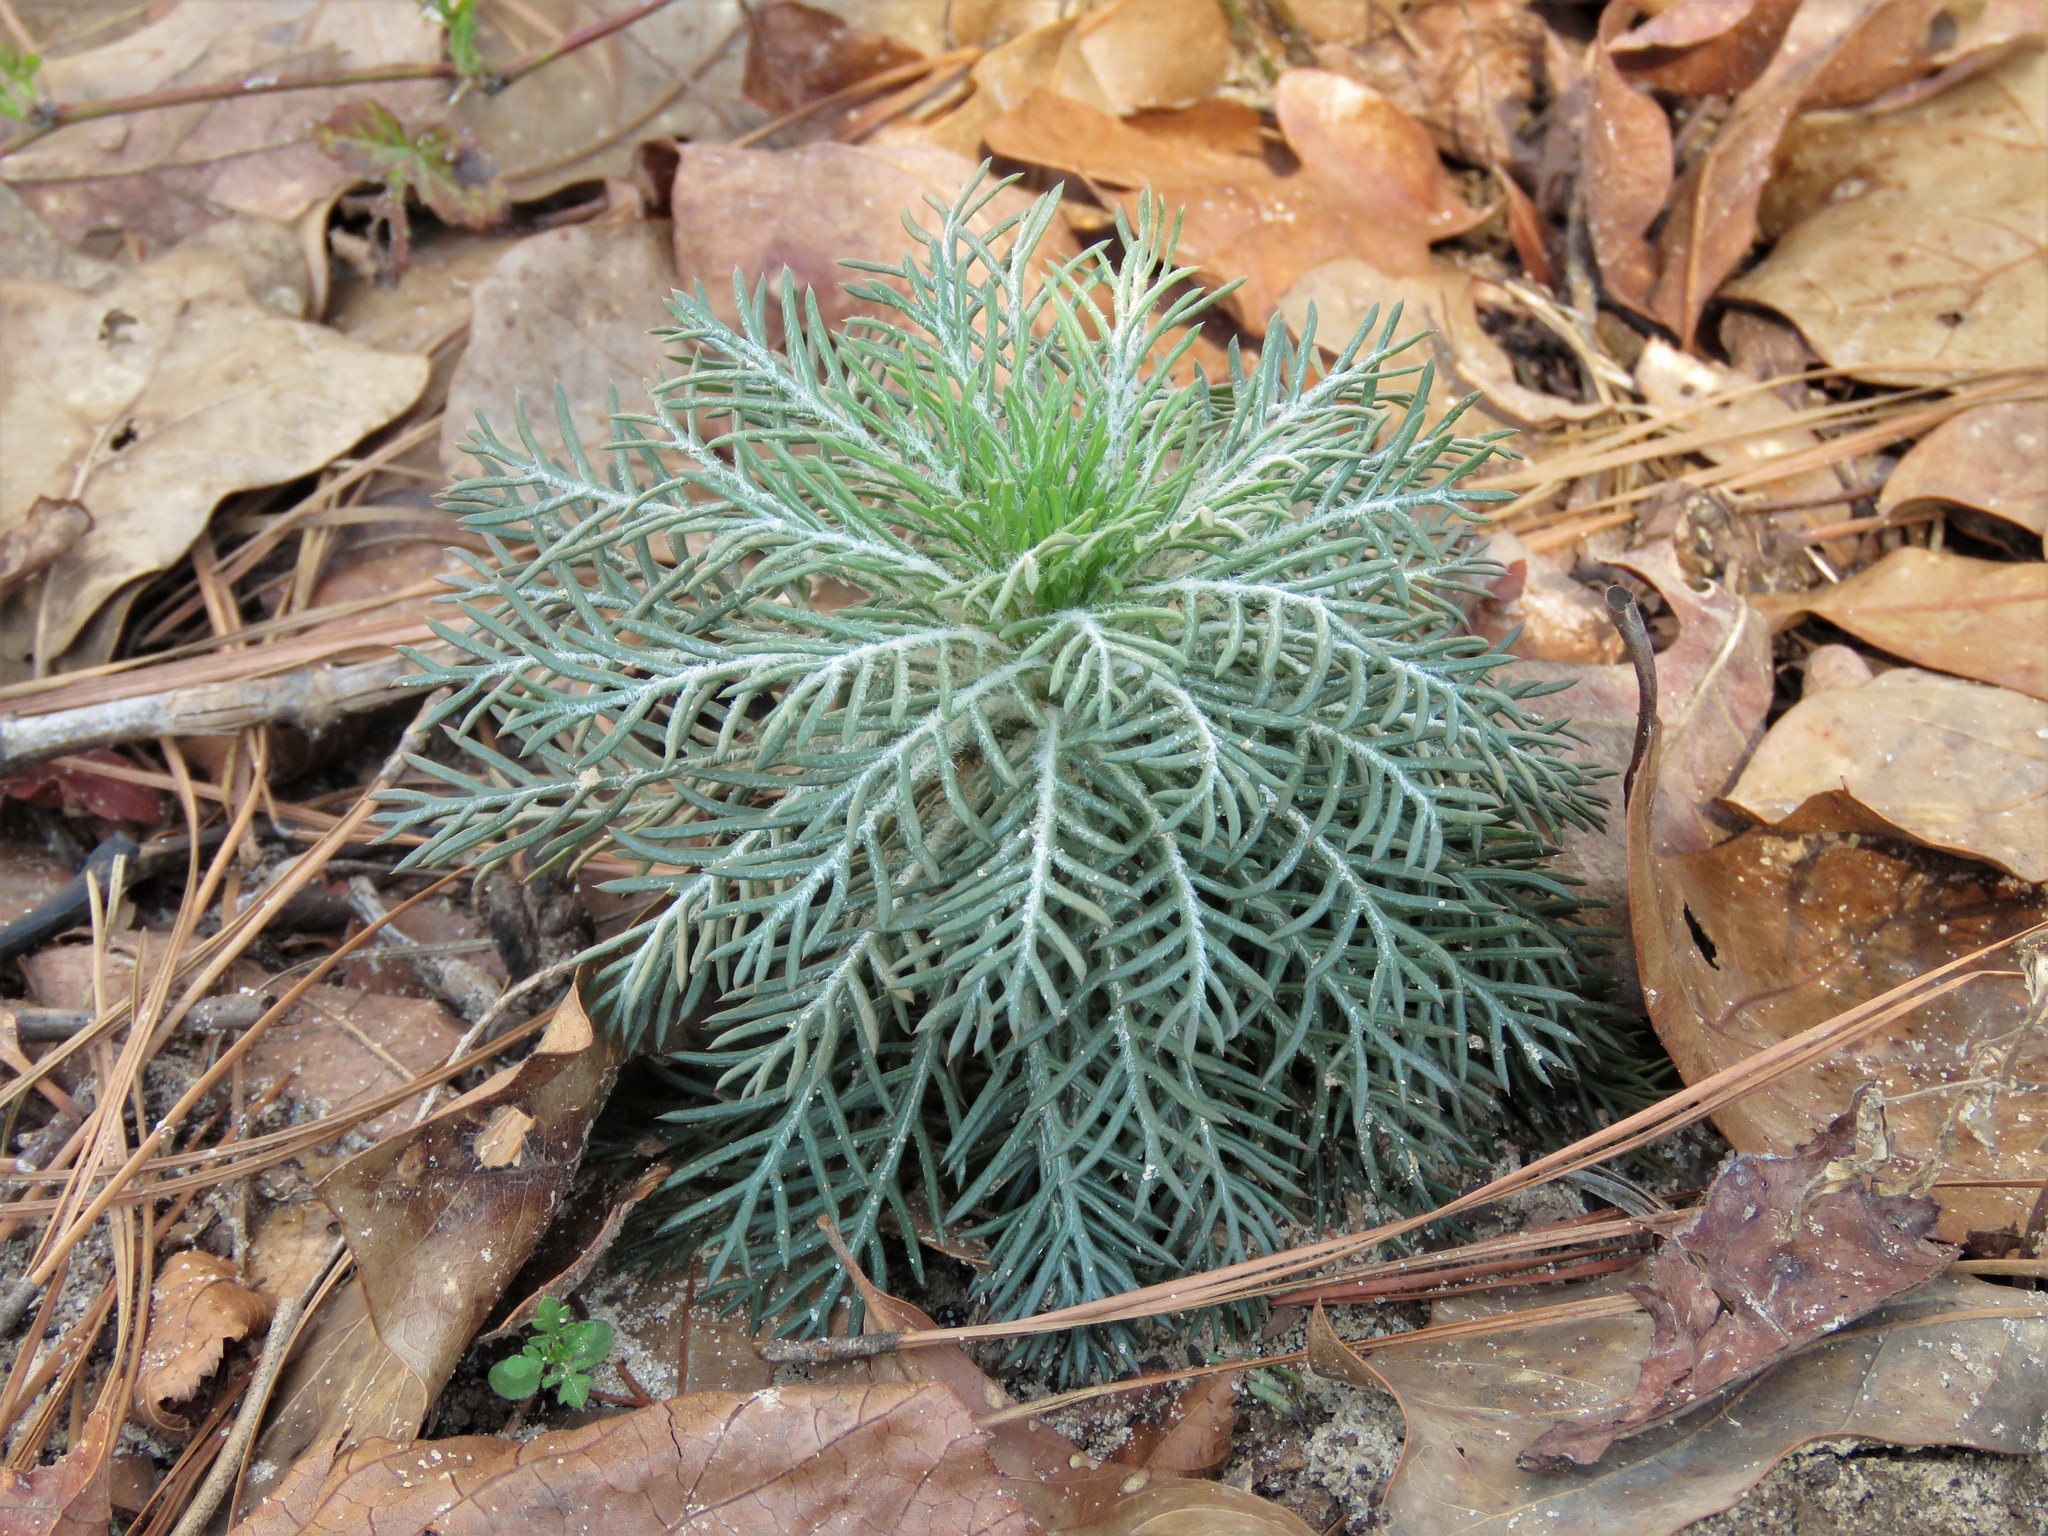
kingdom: Plantae
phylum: Tracheophyta
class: Magnoliopsida
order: Ericales
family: Polemoniaceae
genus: Ipomopsis
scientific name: Ipomopsis rubra
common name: Skyrocket
